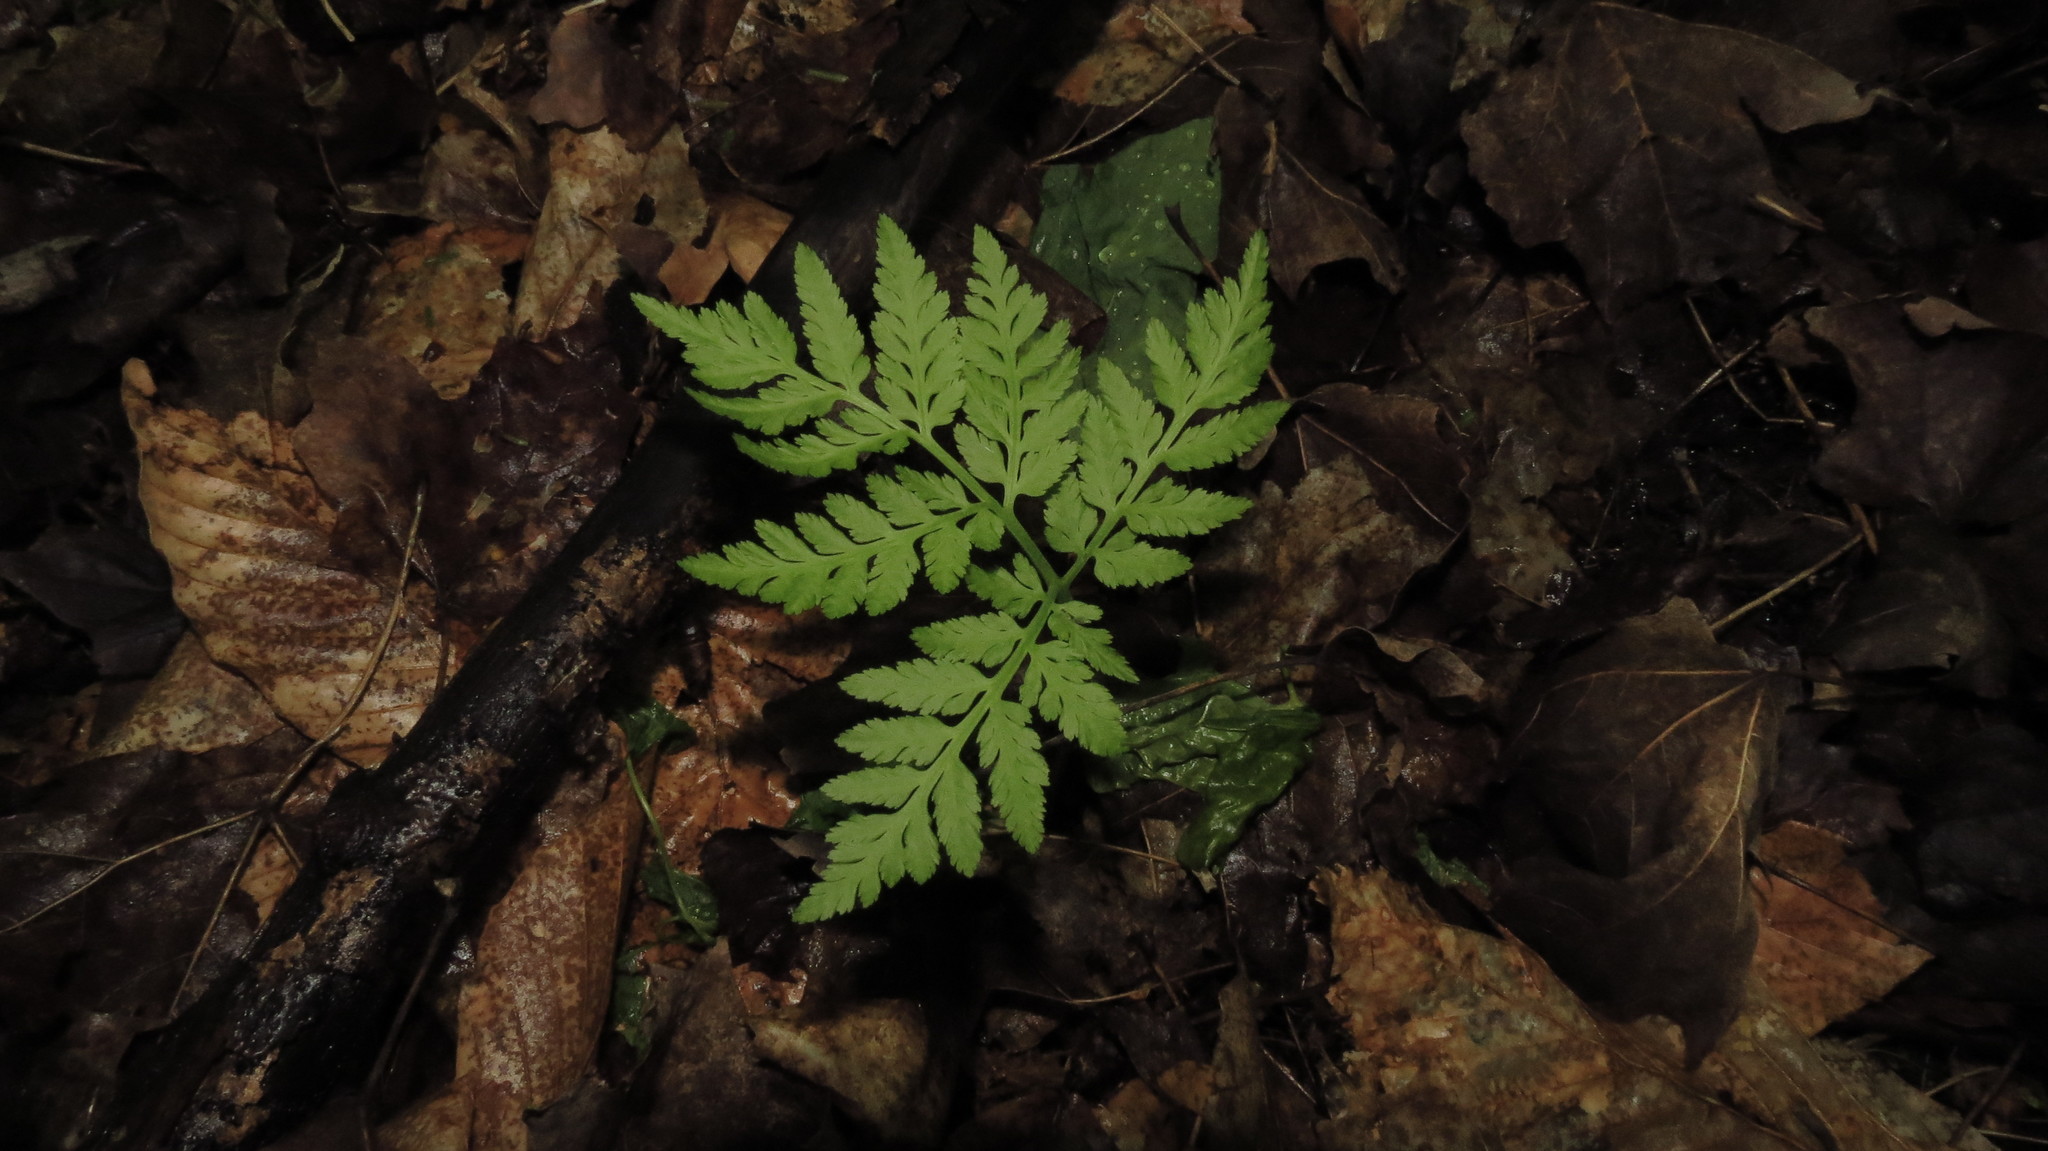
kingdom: Plantae
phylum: Tracheophyta
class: Polypodiopsida
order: Ophioglossales
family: Ophioglossaceae
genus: Botrypus
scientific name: Botrypus virginianus
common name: Common grapefern
